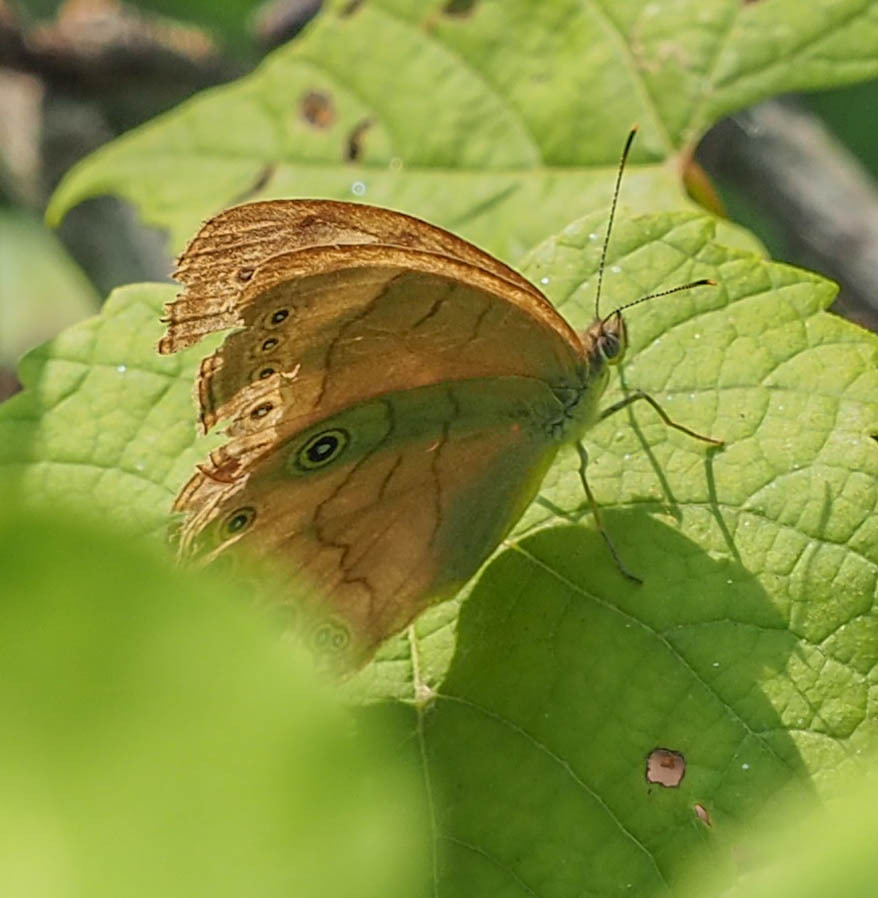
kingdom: Animalia
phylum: Arthropoda
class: Insecta
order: Lepidoptera
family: Nymphalidae
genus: Lethe
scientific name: Lethe eurydice
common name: Eyed brown
